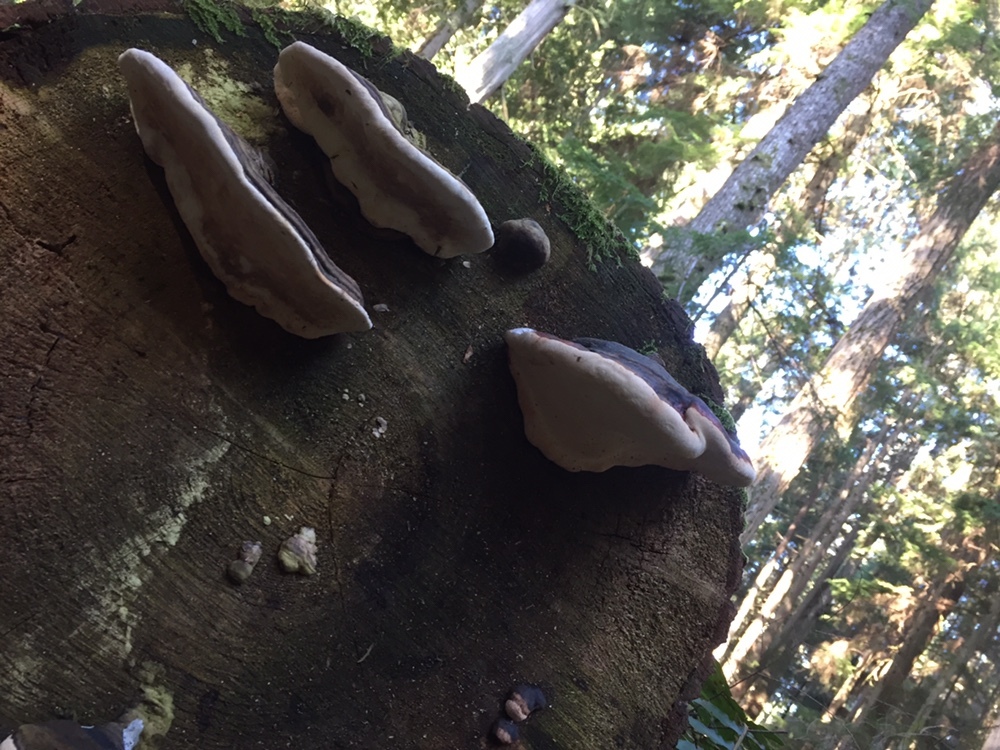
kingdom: Fungi
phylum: Basidiomycota
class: Agaricomycetes
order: Polyporales
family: Fomitopsidaceae
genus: Fomitopsis
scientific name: Fomitopsis mounceae
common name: Northern red belt
